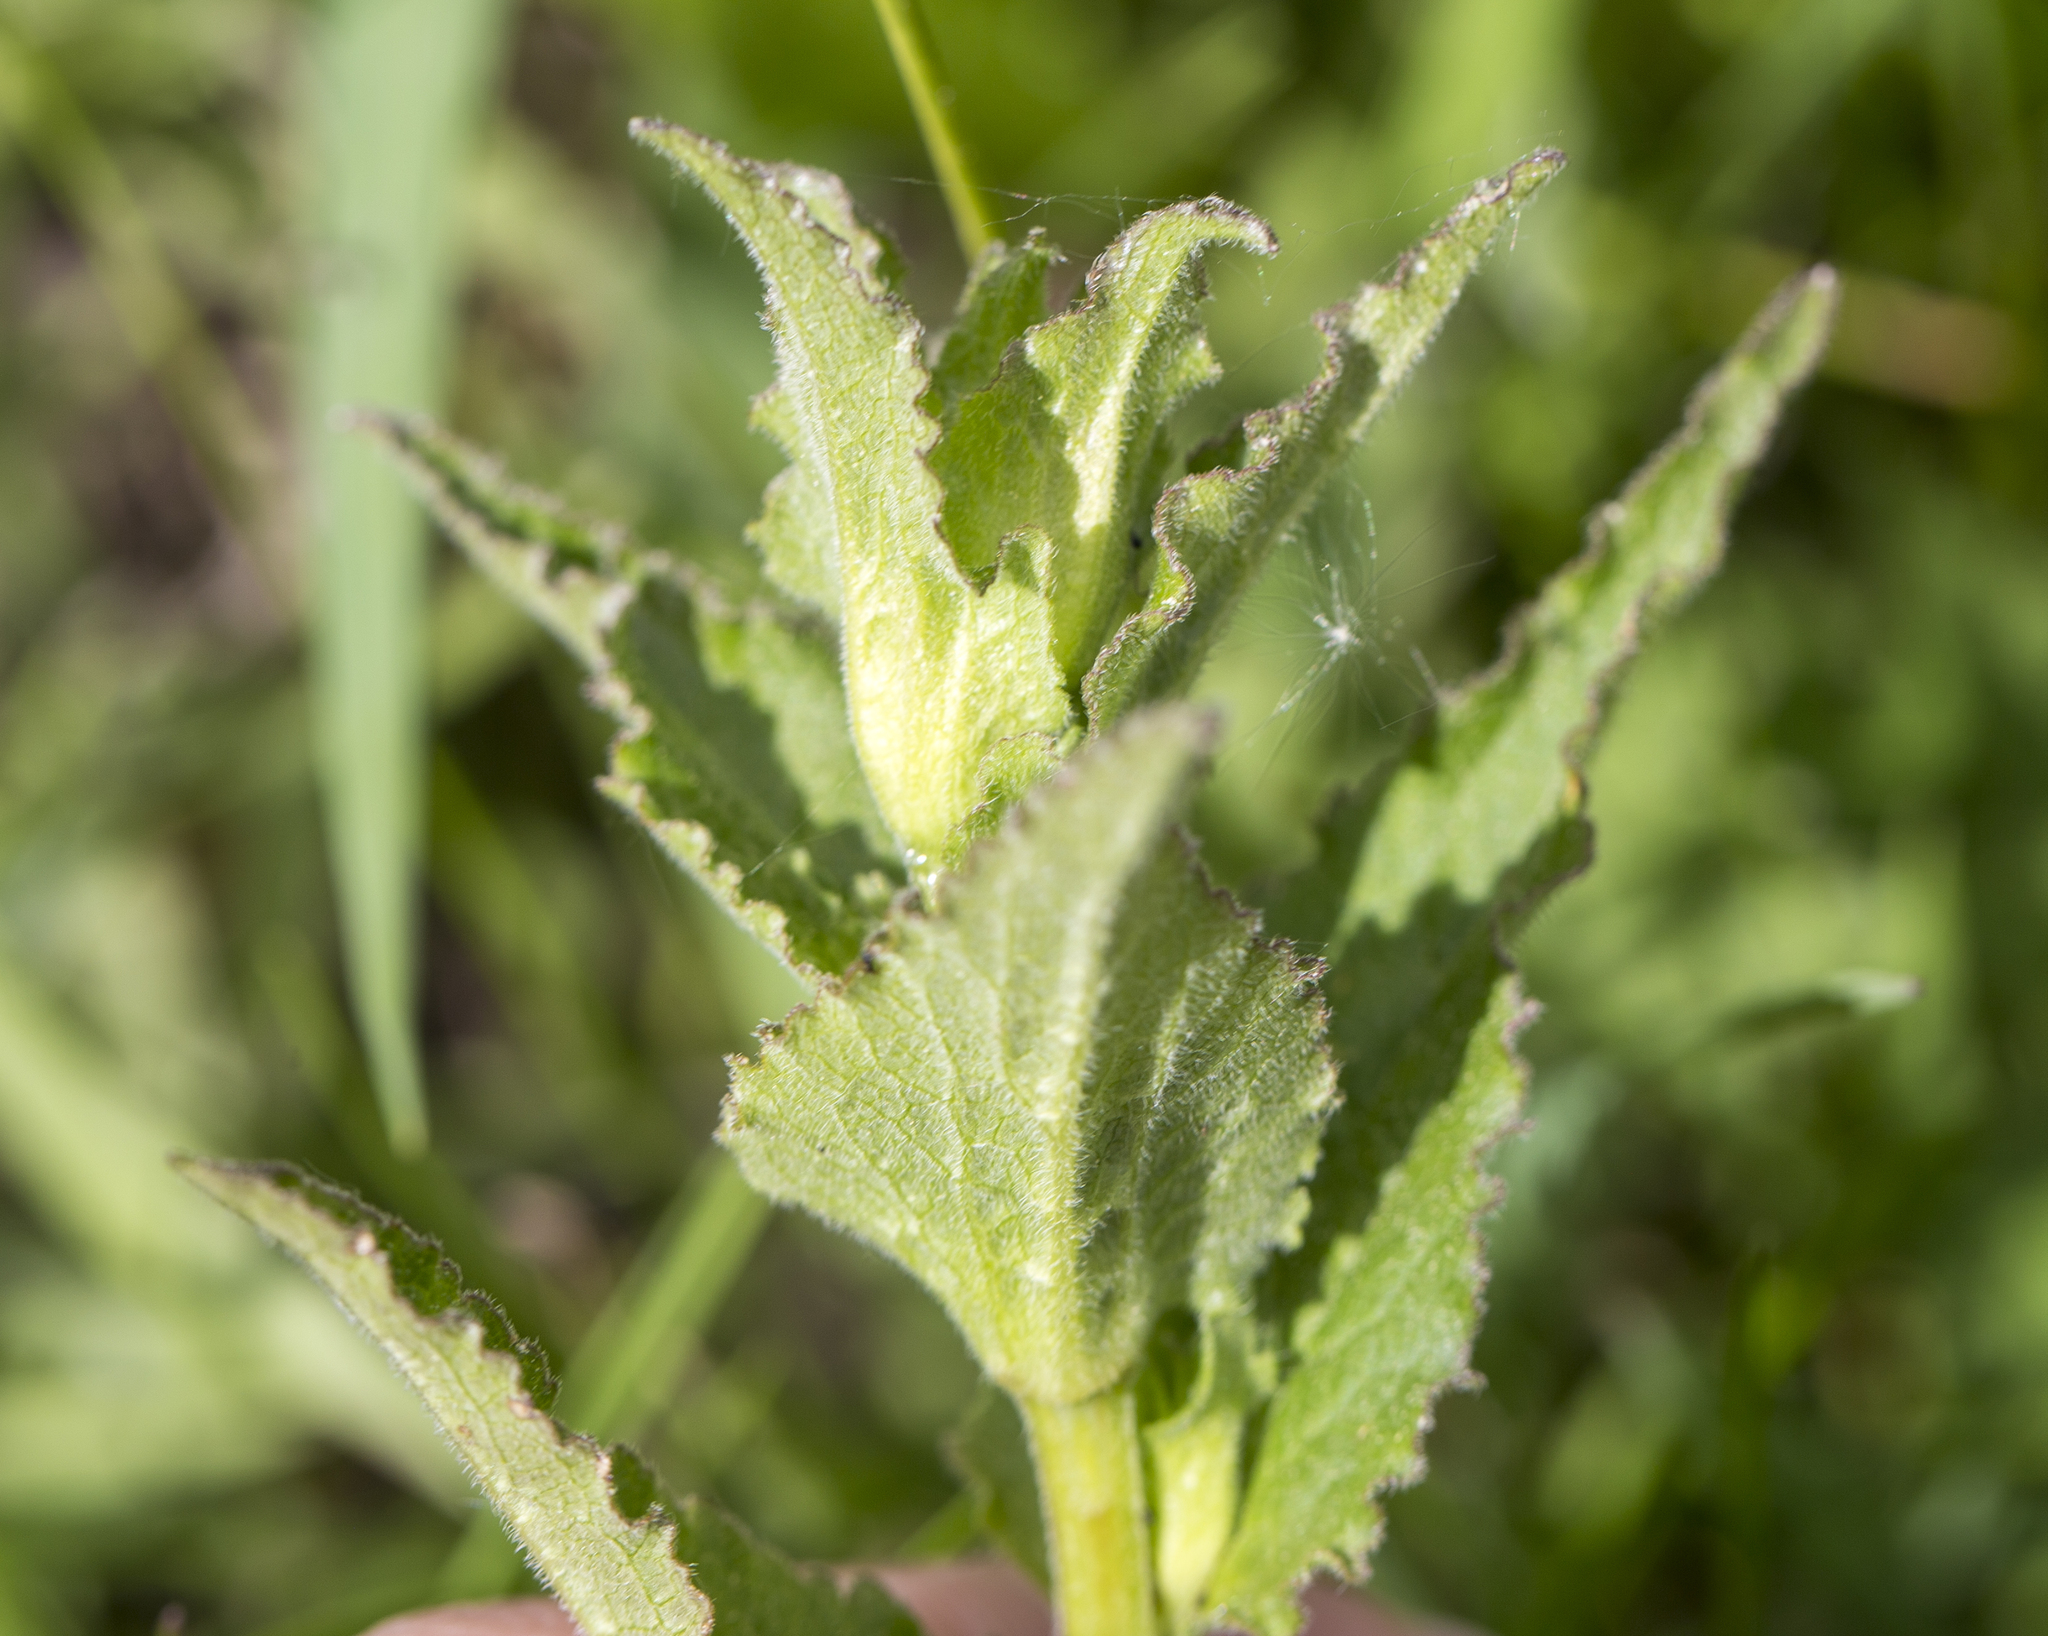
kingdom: Plantae
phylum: Tracheophyta
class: Magnoliopsida
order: Asterales
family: Campanulaceae
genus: Campanula
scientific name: Campanula glomerata
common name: Clustered bellflower
